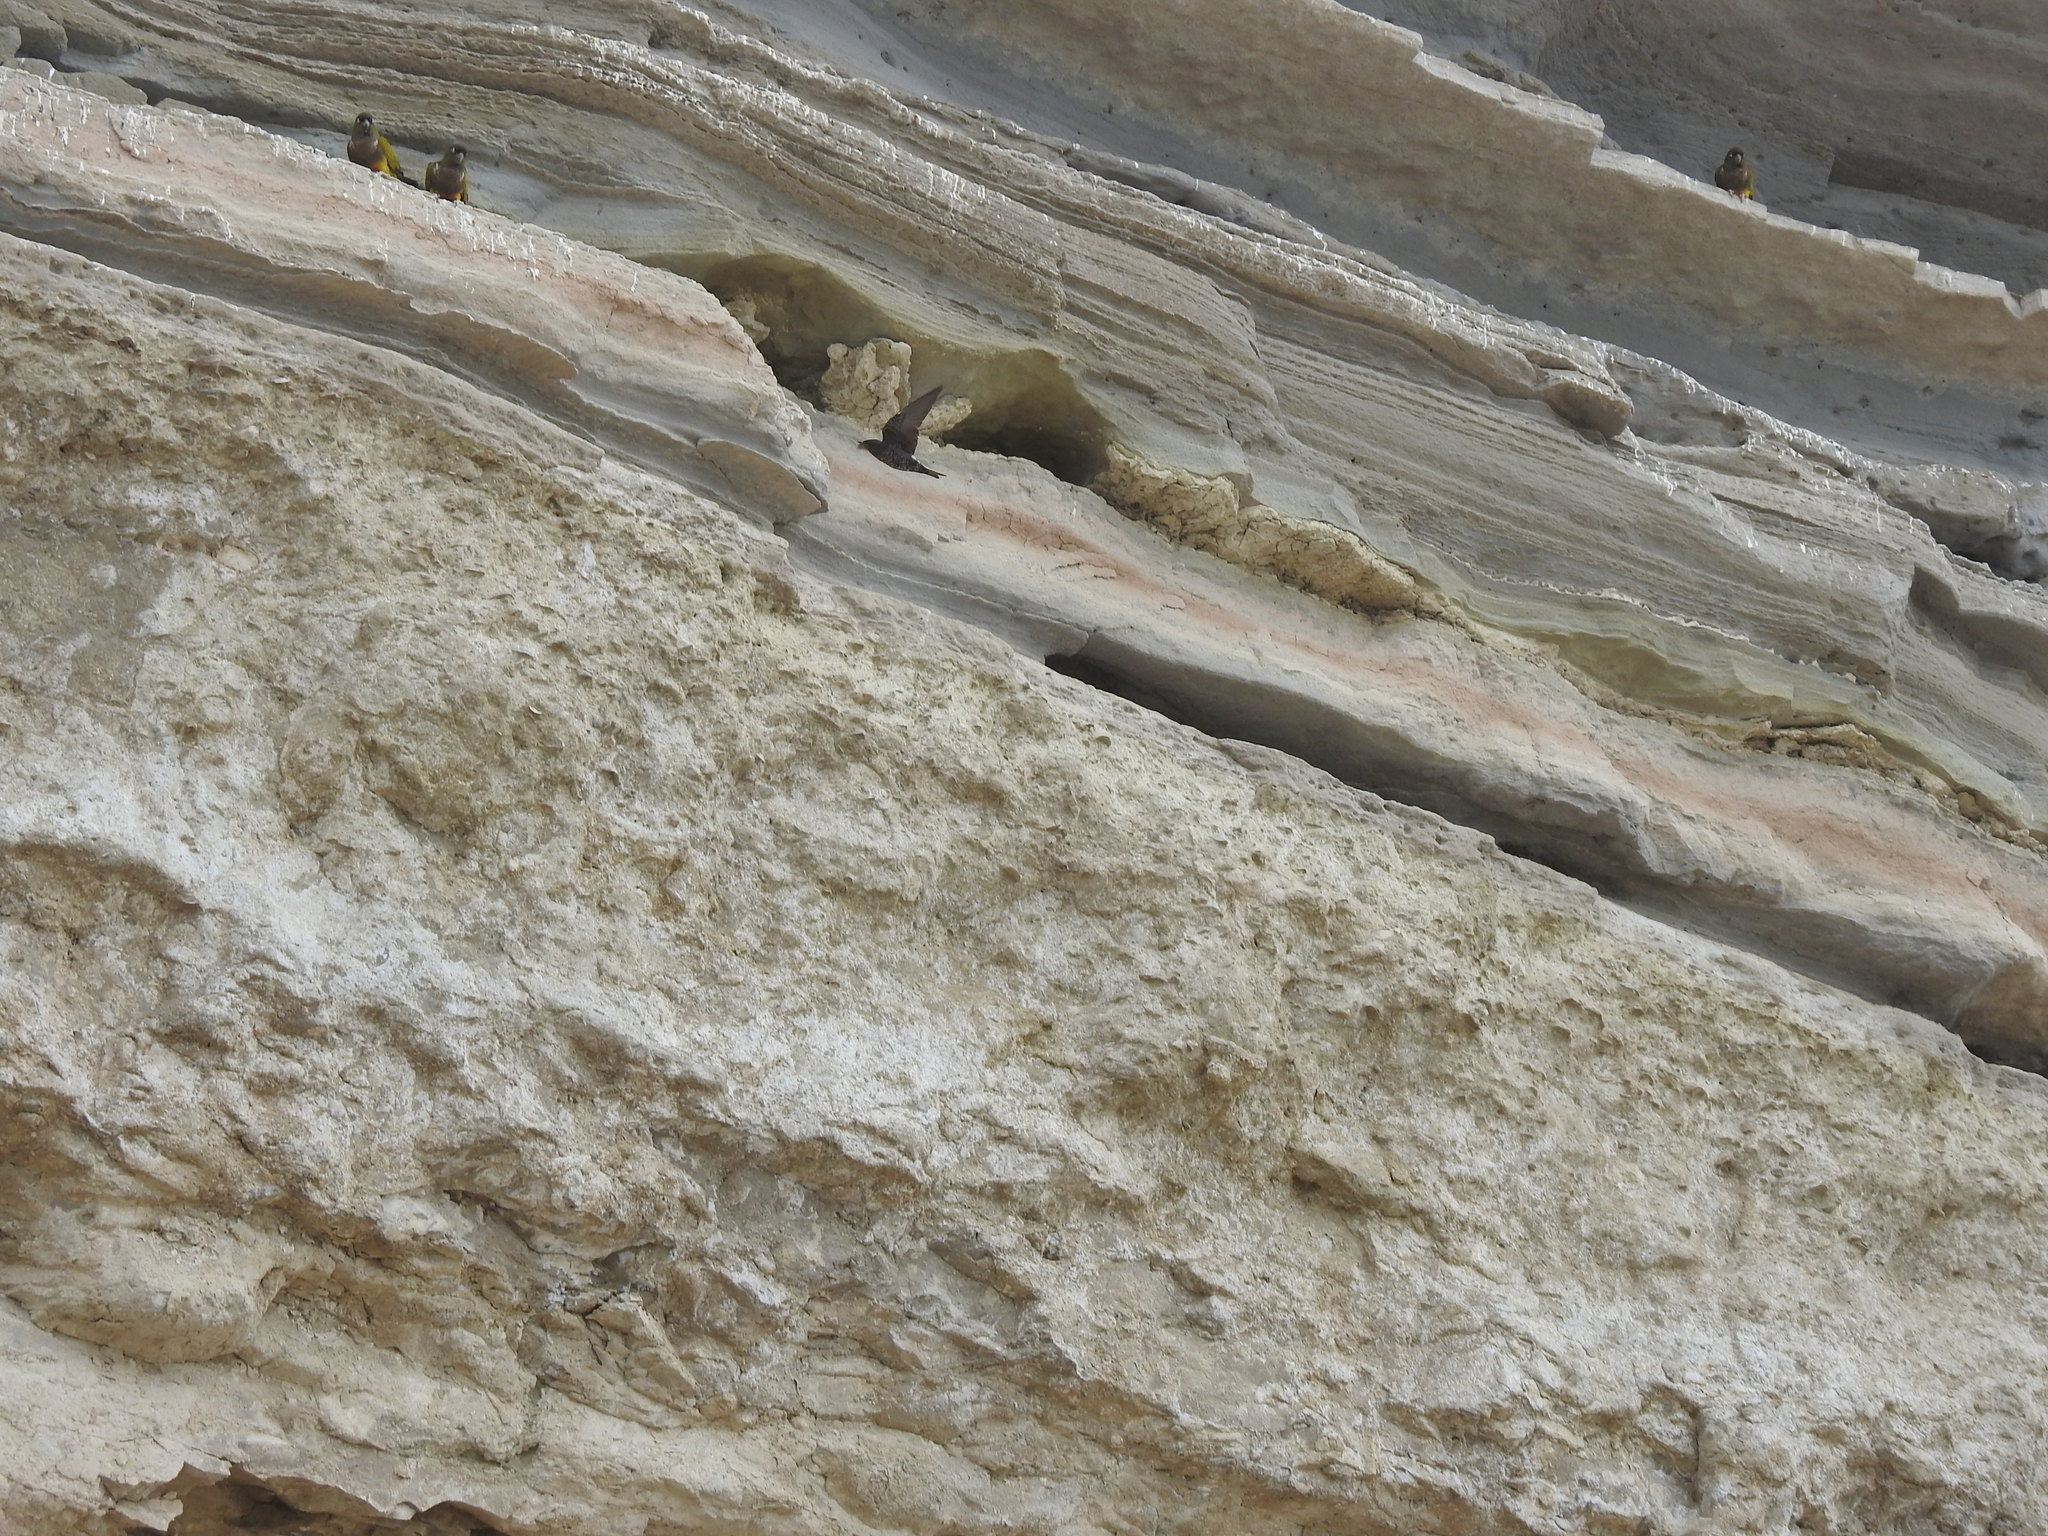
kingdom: Animalia
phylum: Chordata
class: Aves
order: Passeriformes
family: Hirundinidae
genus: Progne
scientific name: Progne elegans
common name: Southern martin
